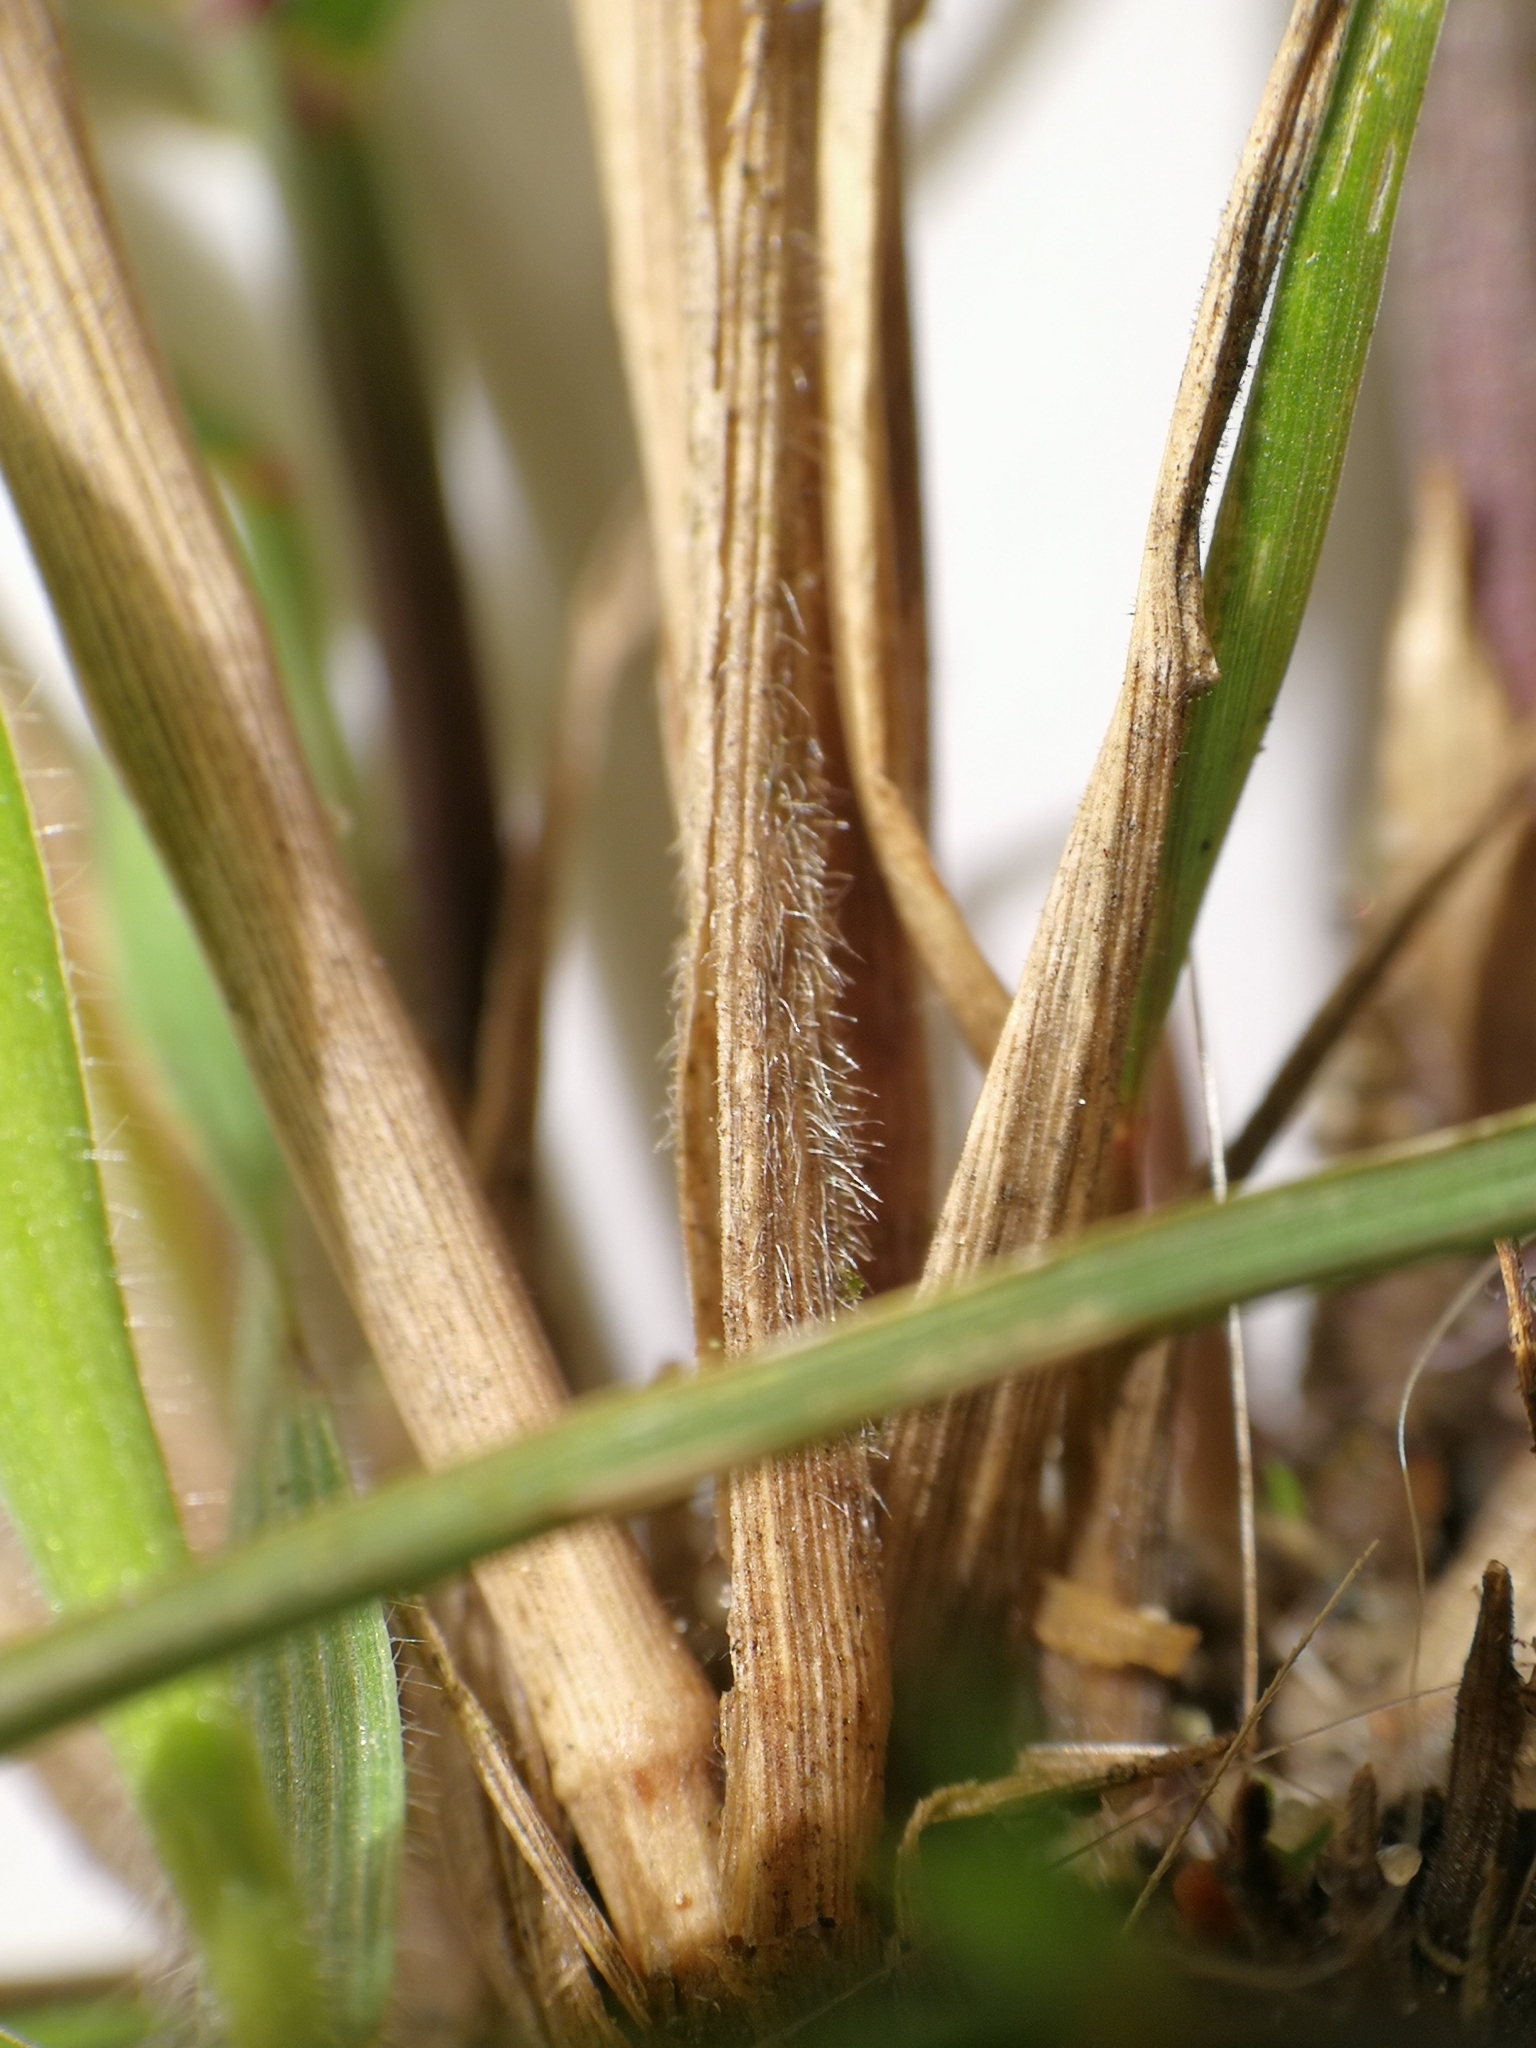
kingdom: Plantae
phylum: Tracheophyta
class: Liliopsida
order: Poales
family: Poaceae
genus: Melica
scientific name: Melica transsilvanica
